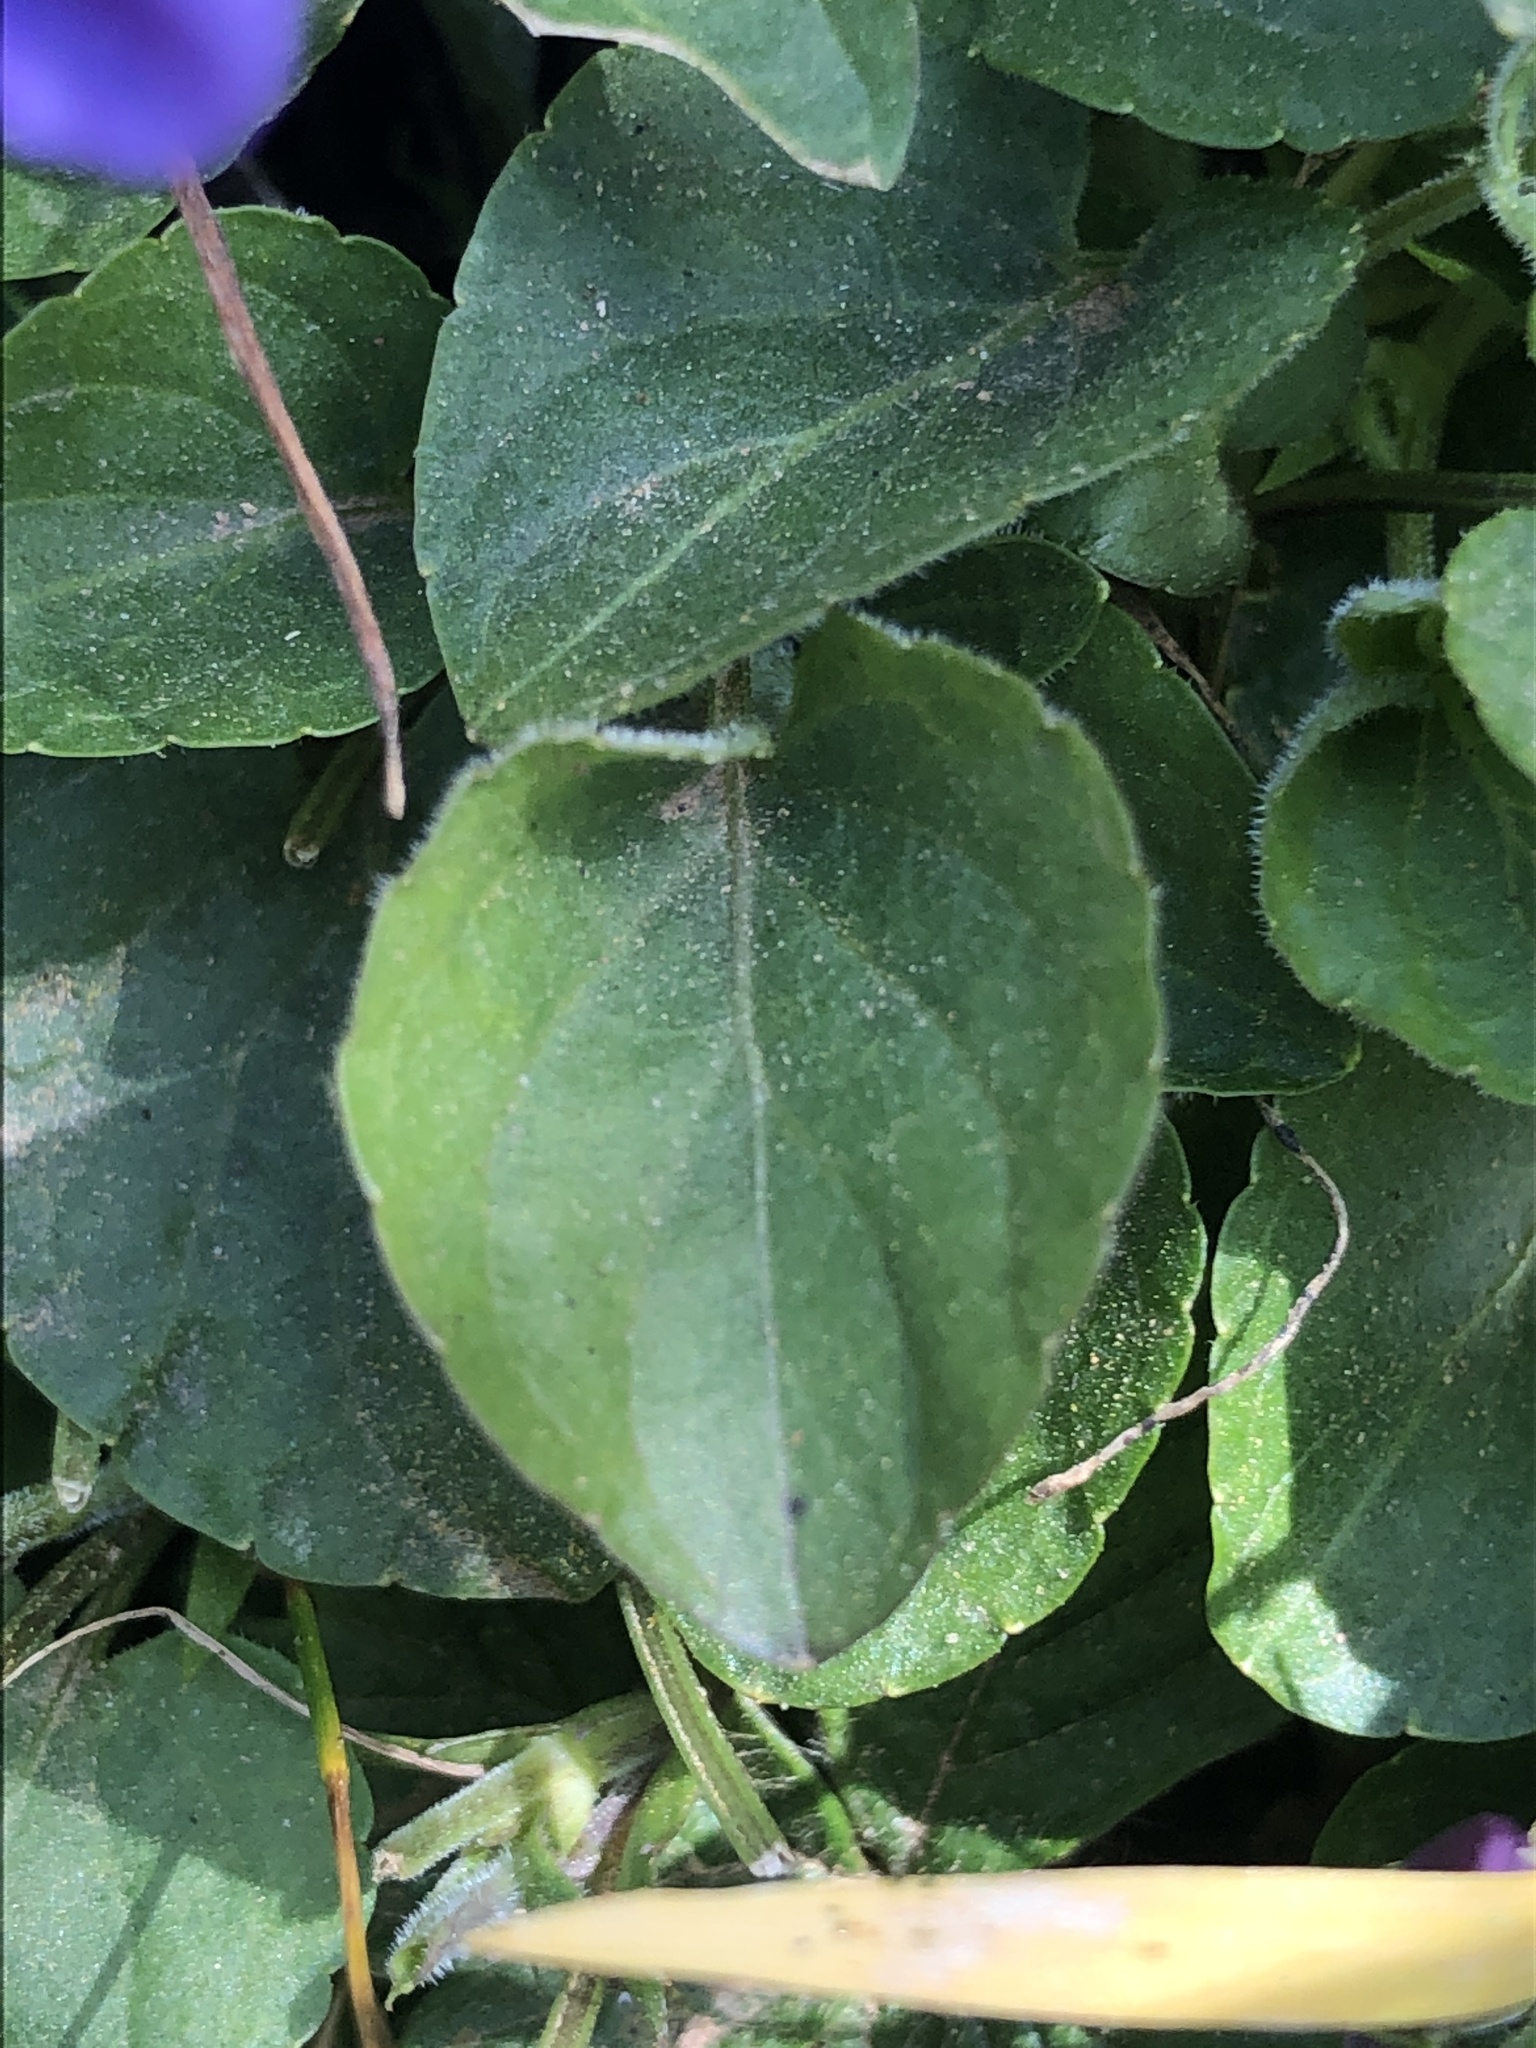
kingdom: Plantae
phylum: Tracheophyta
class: Magnoliopsida
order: Malpighiales
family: Violaceae
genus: Viola
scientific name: Viola adunca
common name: Sand violet
